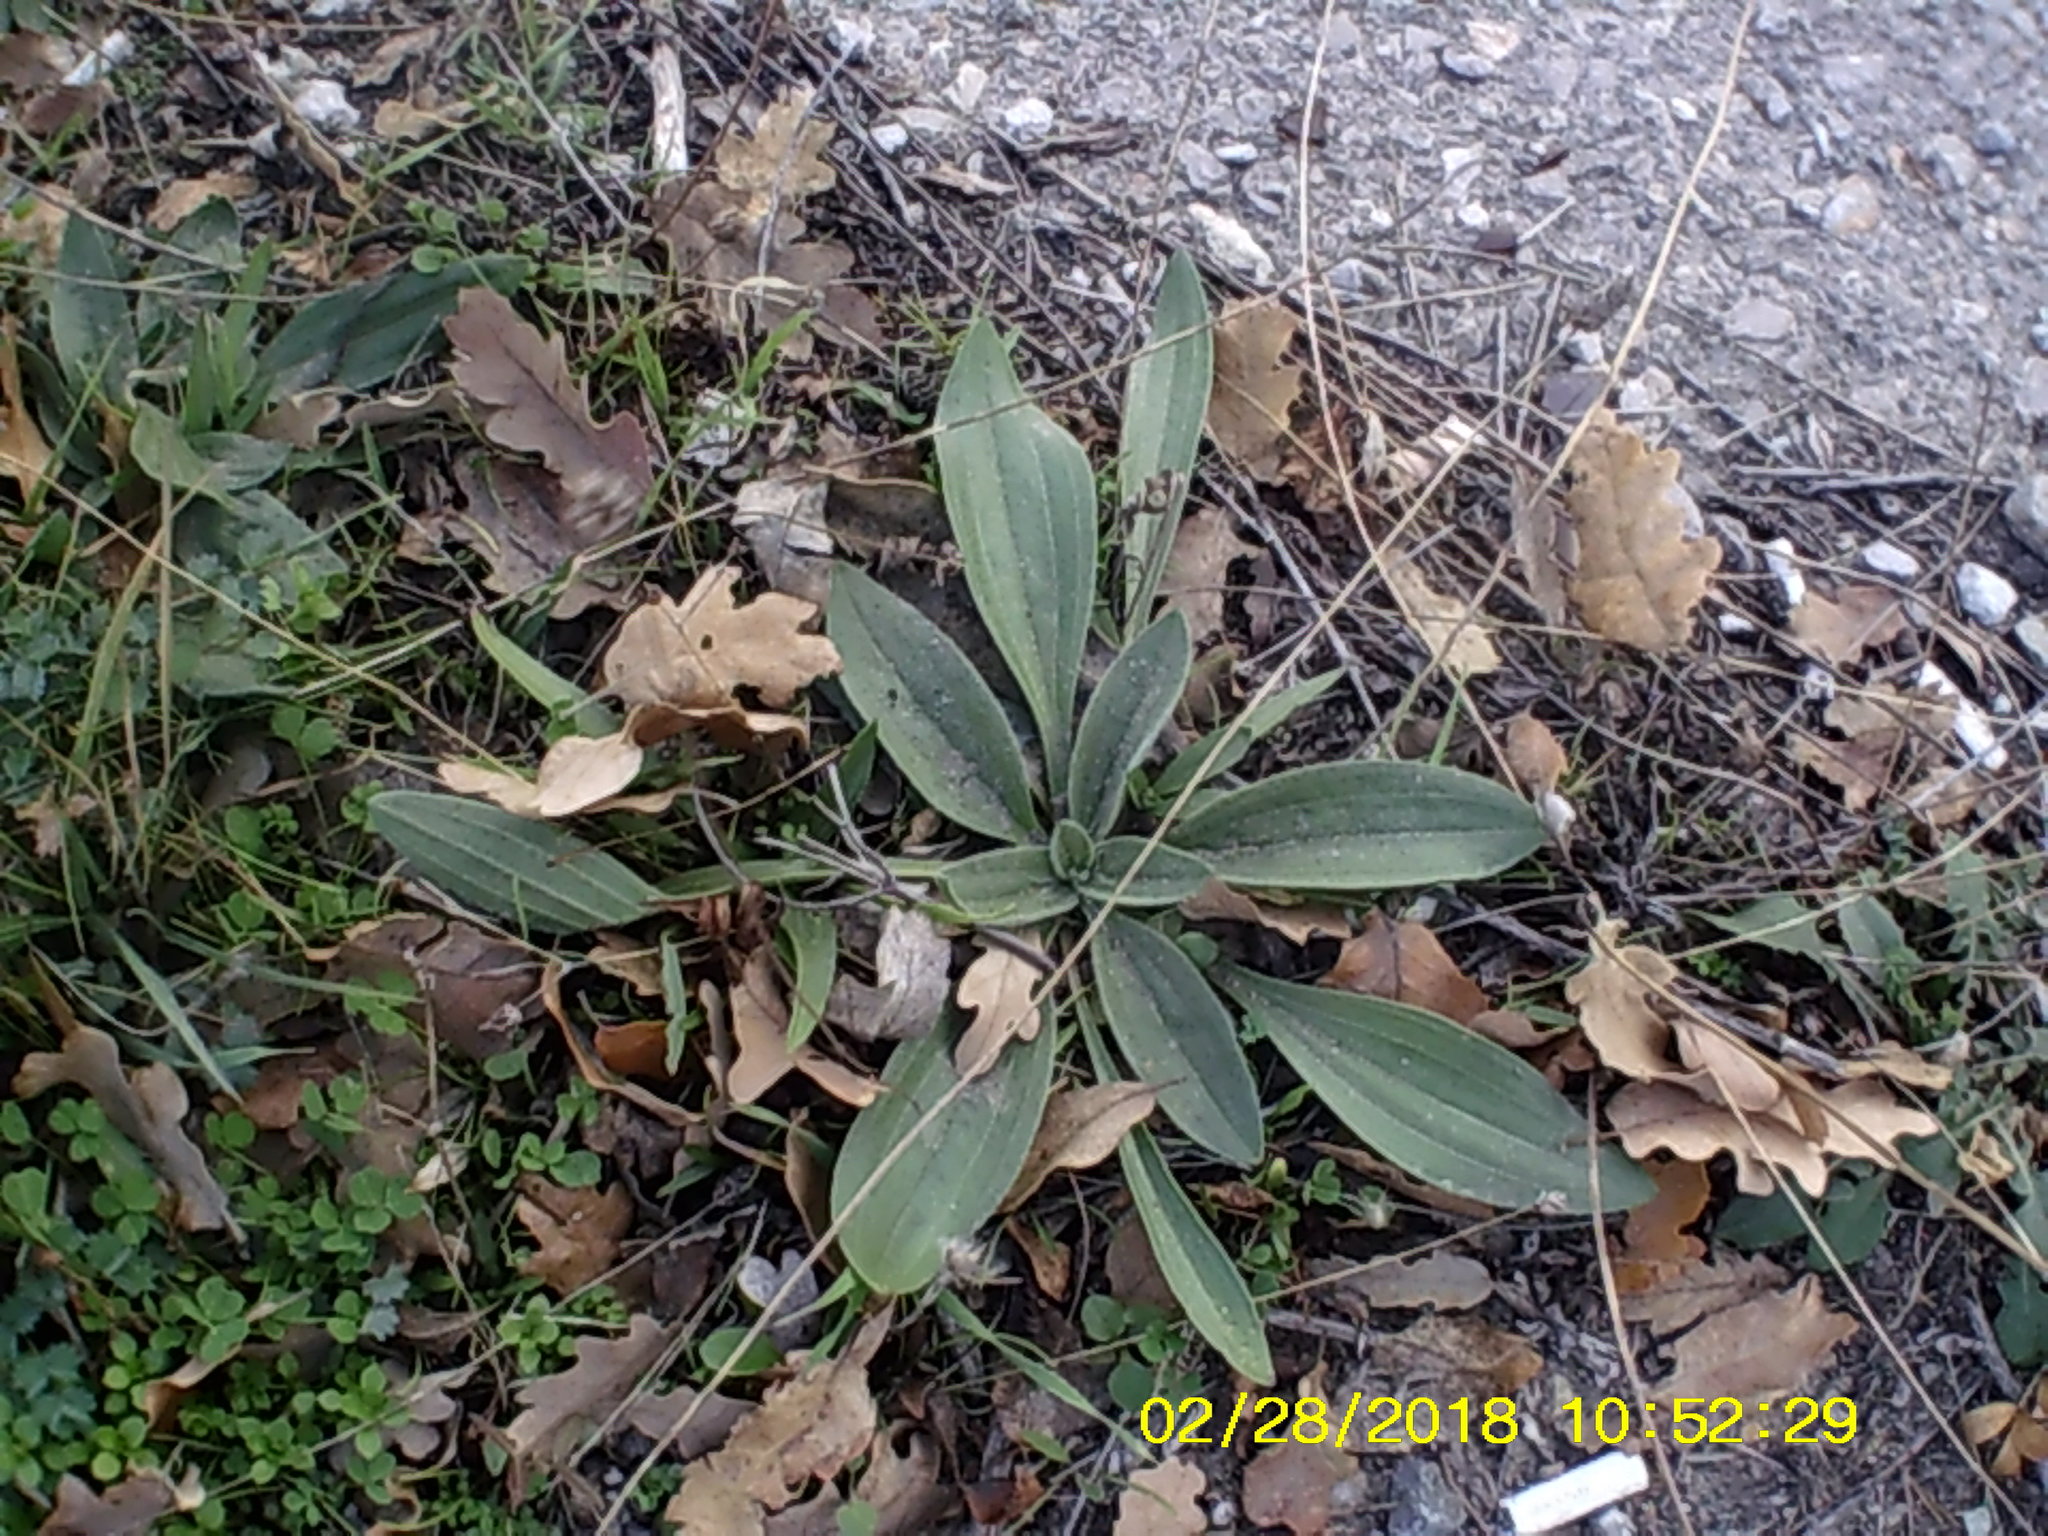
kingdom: Plantae
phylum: Tracheophyta
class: Magnoliopsida
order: Lamiales
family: Plantaginaceae
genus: Plantago
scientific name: Plantago lanceolata
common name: Ribwort plantain
